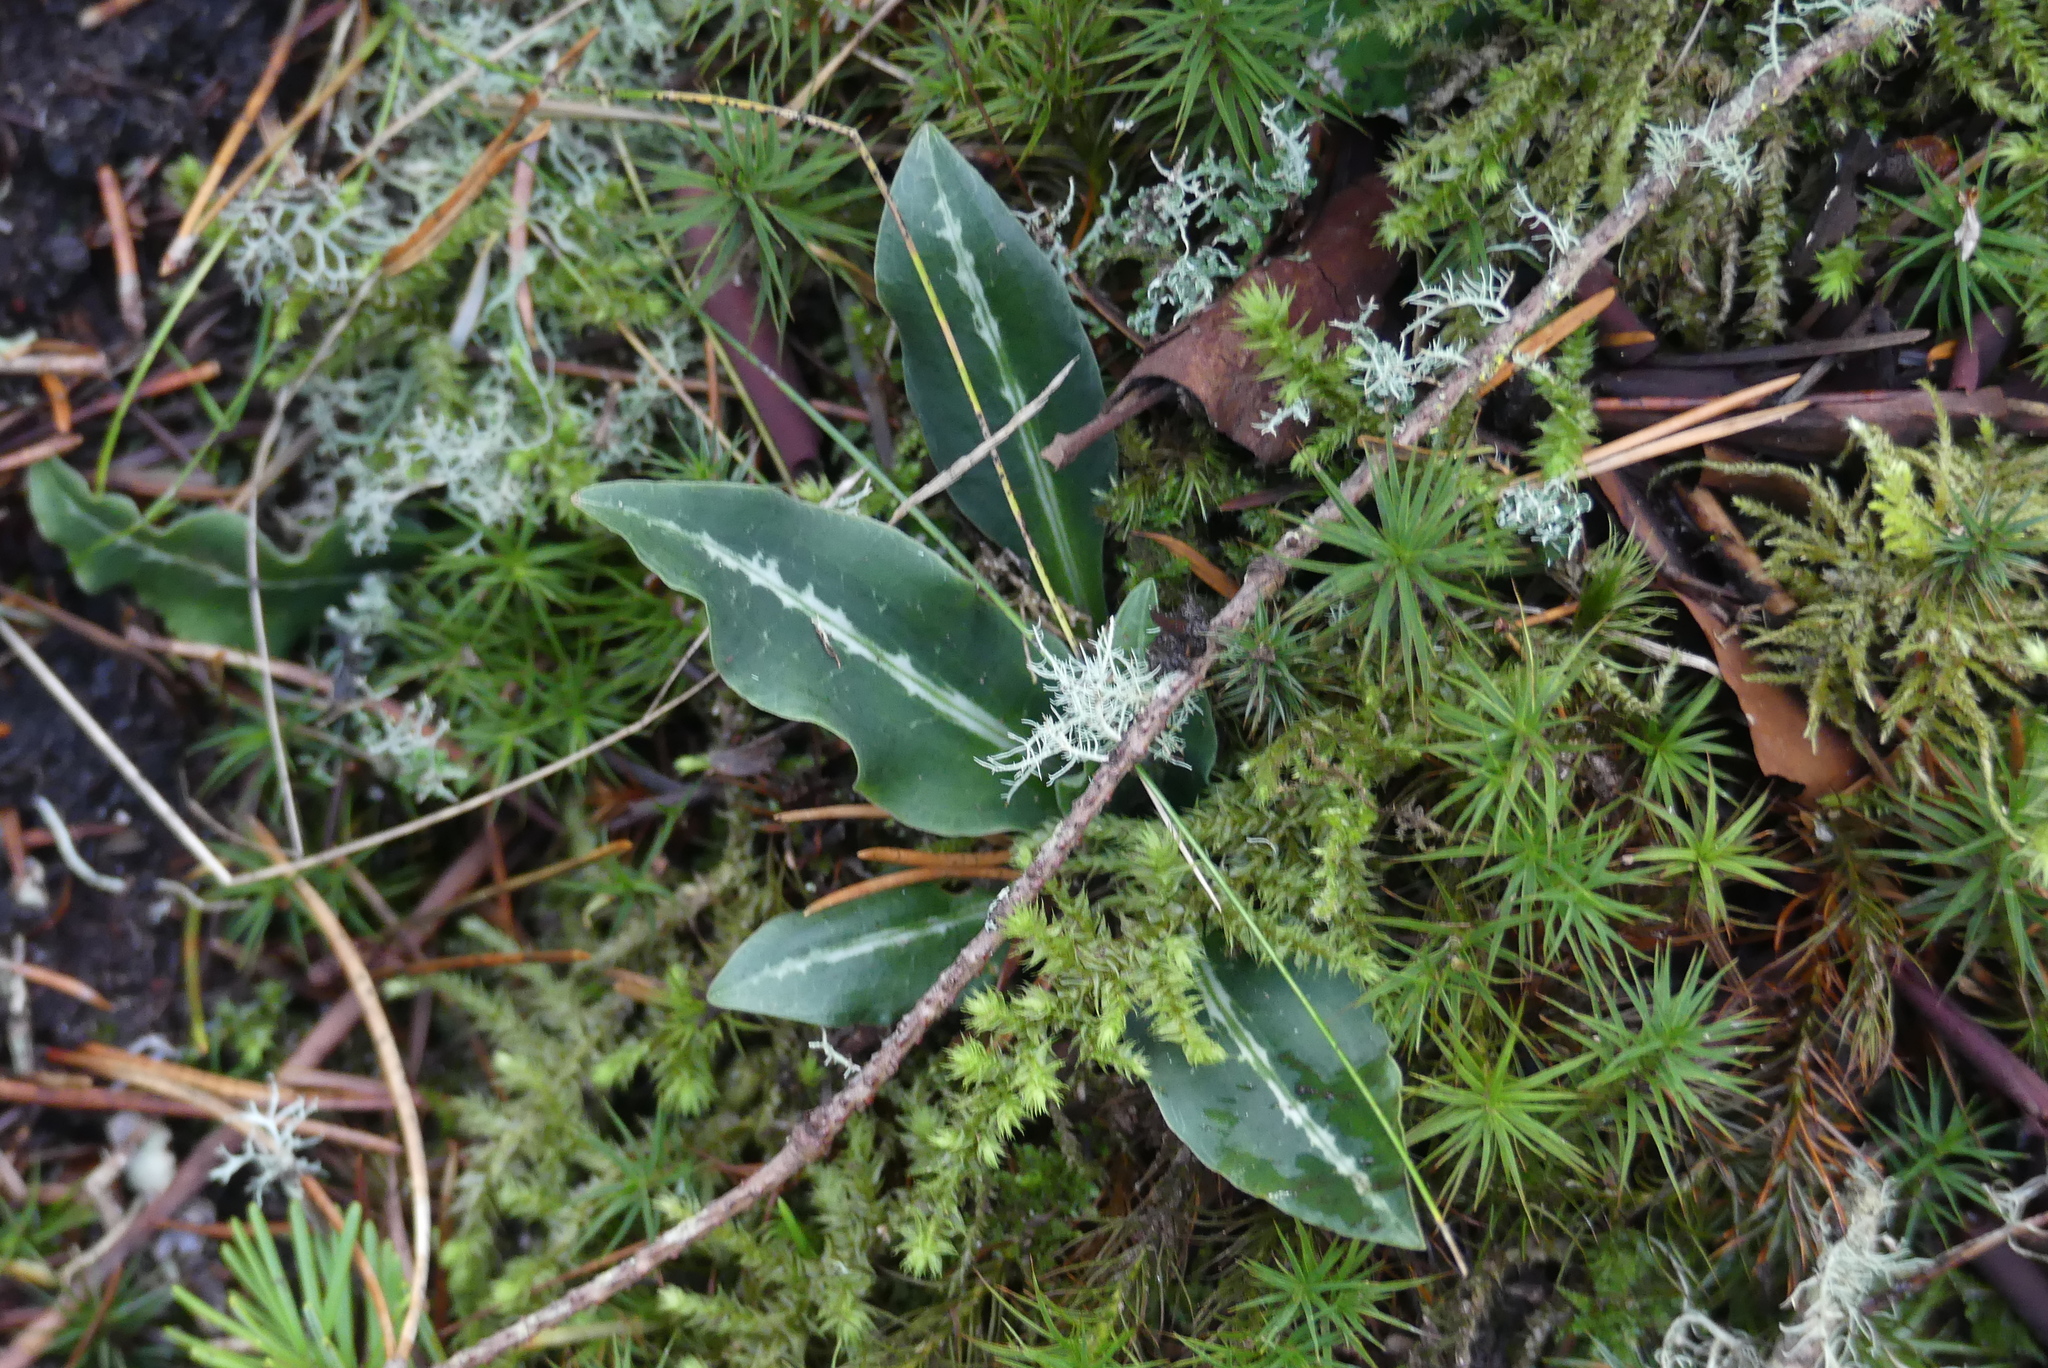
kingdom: Plantae
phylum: Tracheophyta
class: Liliopsida
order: Asparagales
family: Orchidaceae
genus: Goodyera
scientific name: Goodyera oblongifolia
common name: Giant rattlesnake-plantain
